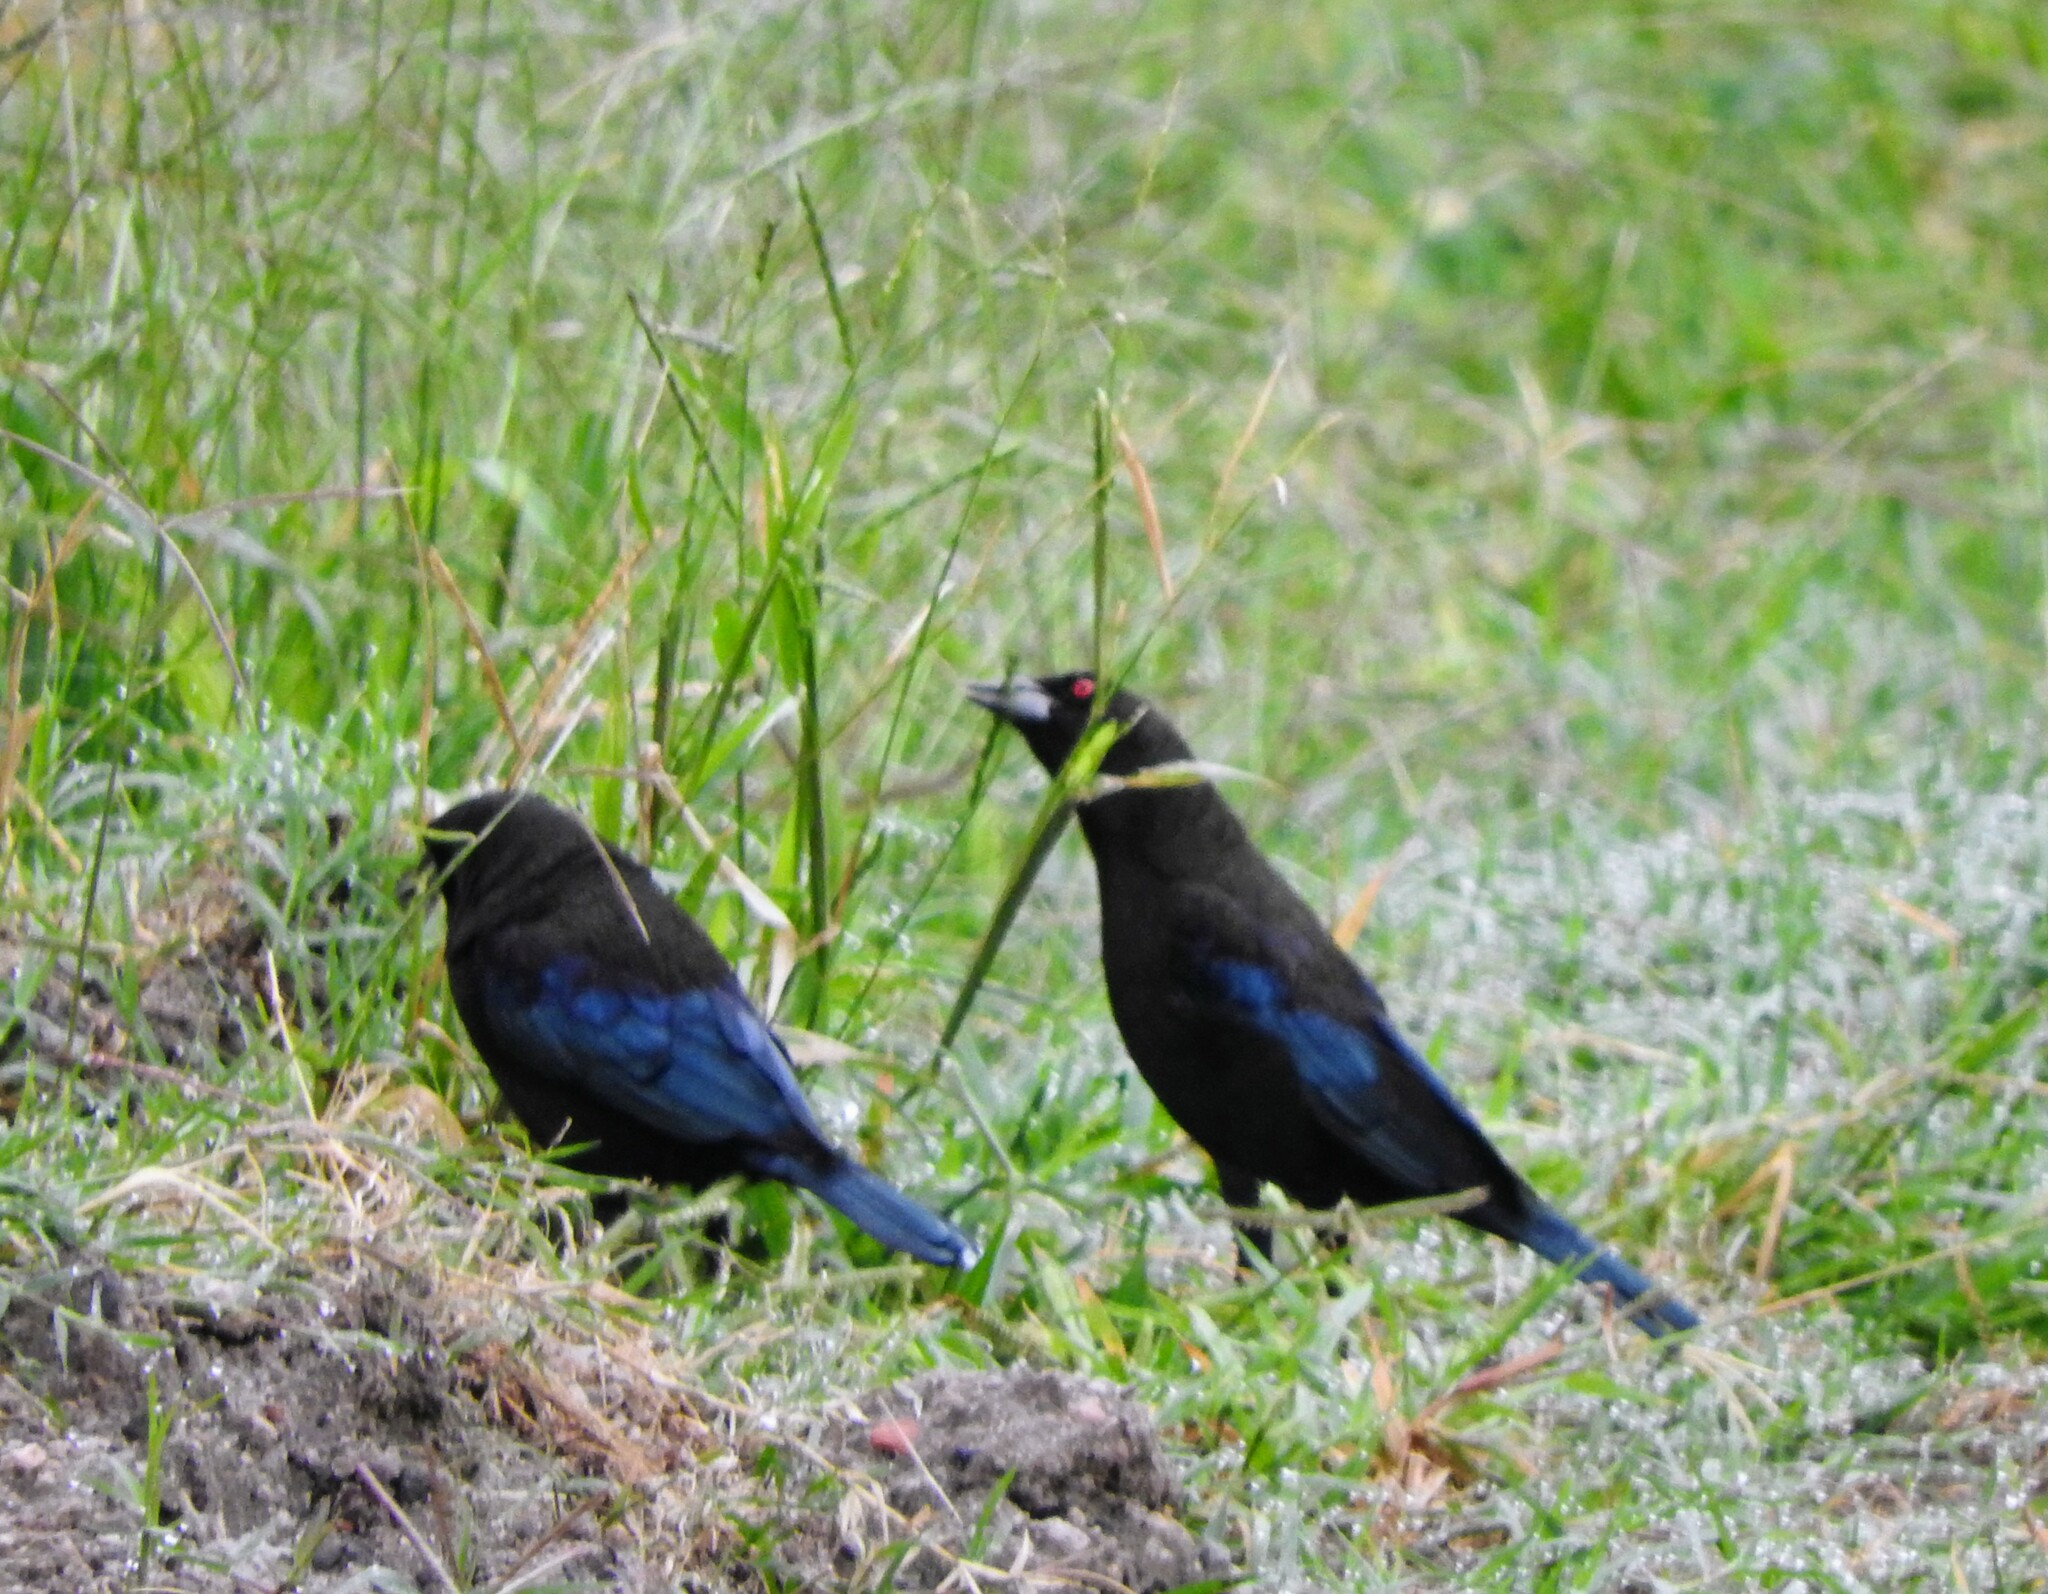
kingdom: Animalia
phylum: Chordata
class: Aves
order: Passeriformes
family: Icteridae
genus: Molothrus
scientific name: Molothrus aeneus
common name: Bronzed cowbird
